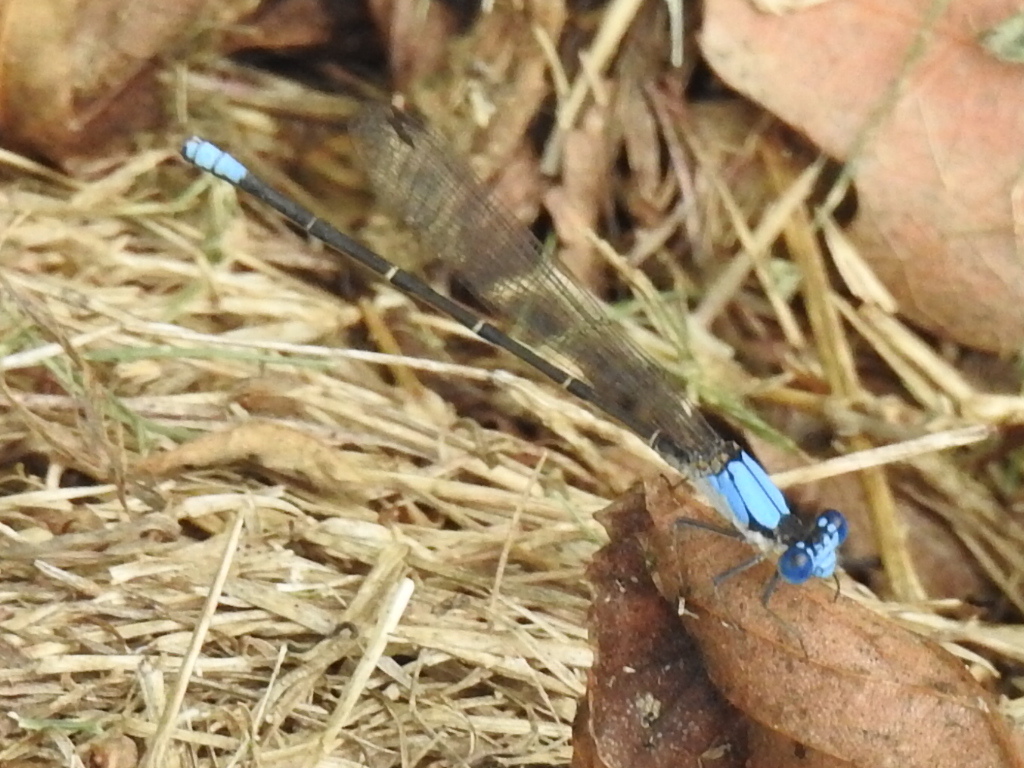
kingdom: Animalia
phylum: Arthropoda
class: Insecta
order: Odonata
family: Coenagrionidae
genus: Argia
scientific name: Argia apicalis
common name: Blue-fronted dancer
